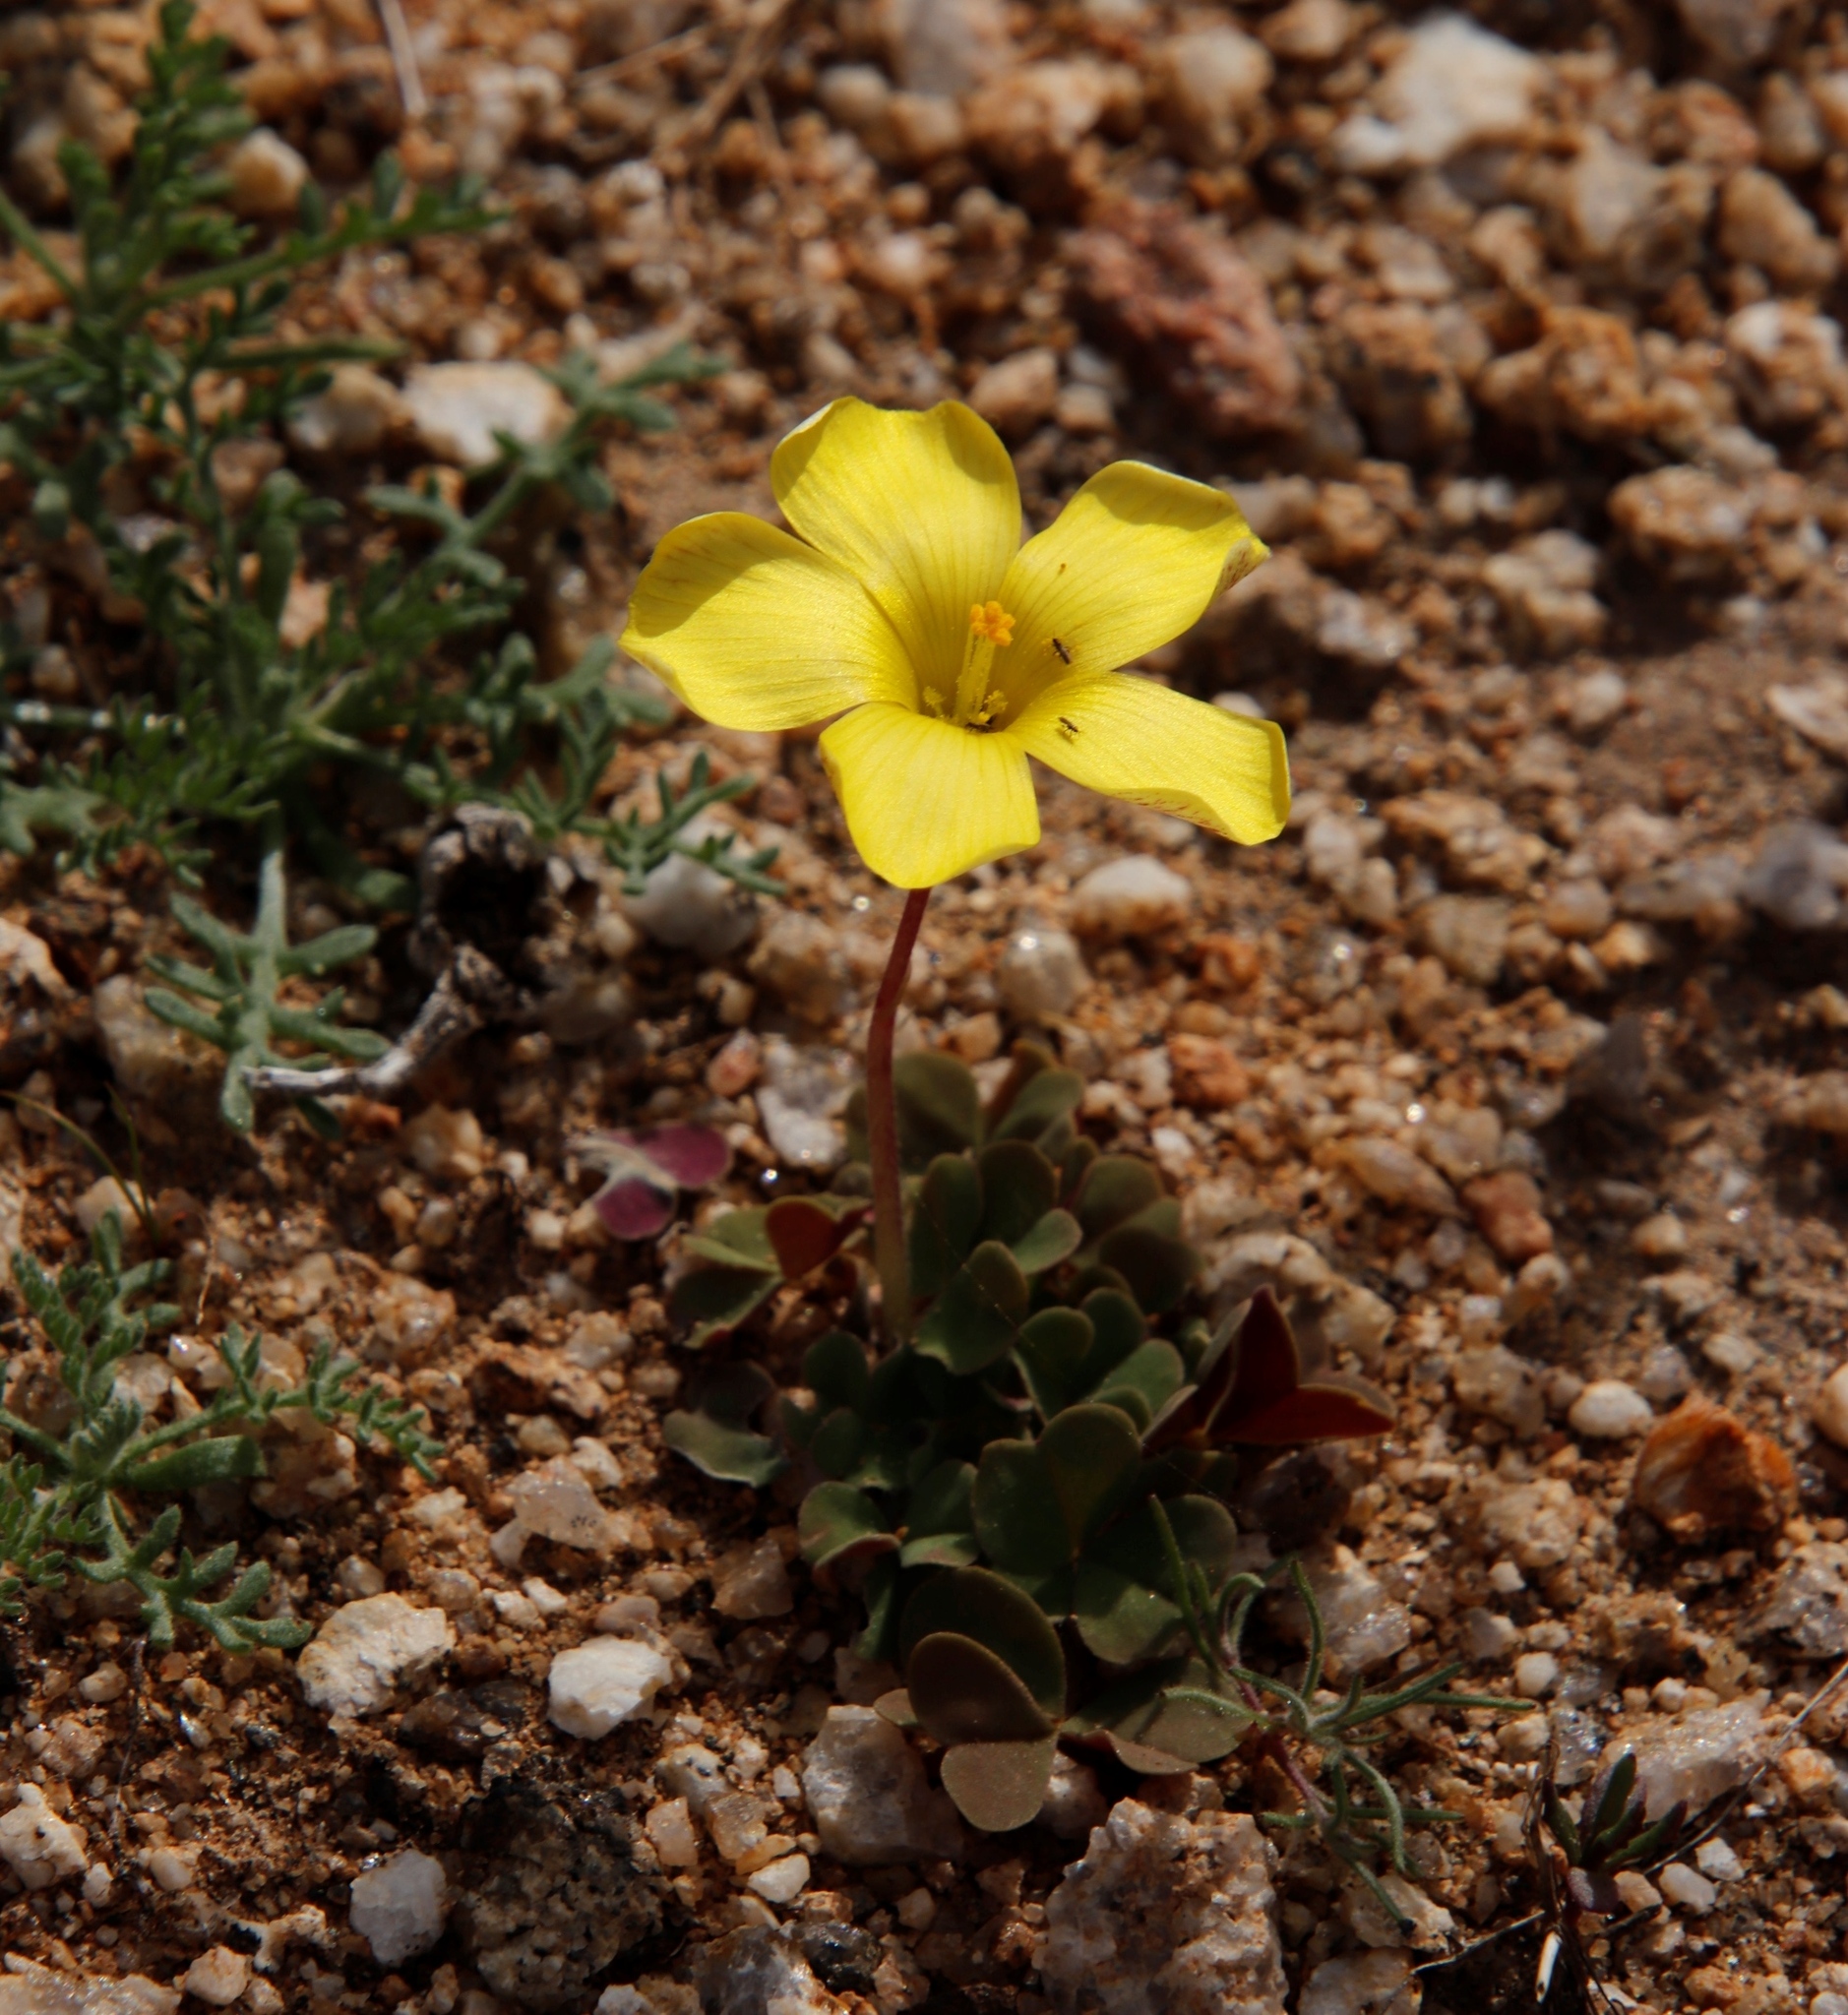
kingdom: Plantae
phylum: Tracheophyta
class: Magnoliopsida
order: Oxalidales
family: Oxalidaceae
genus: Oxalis
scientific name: Oxalis obtusa
